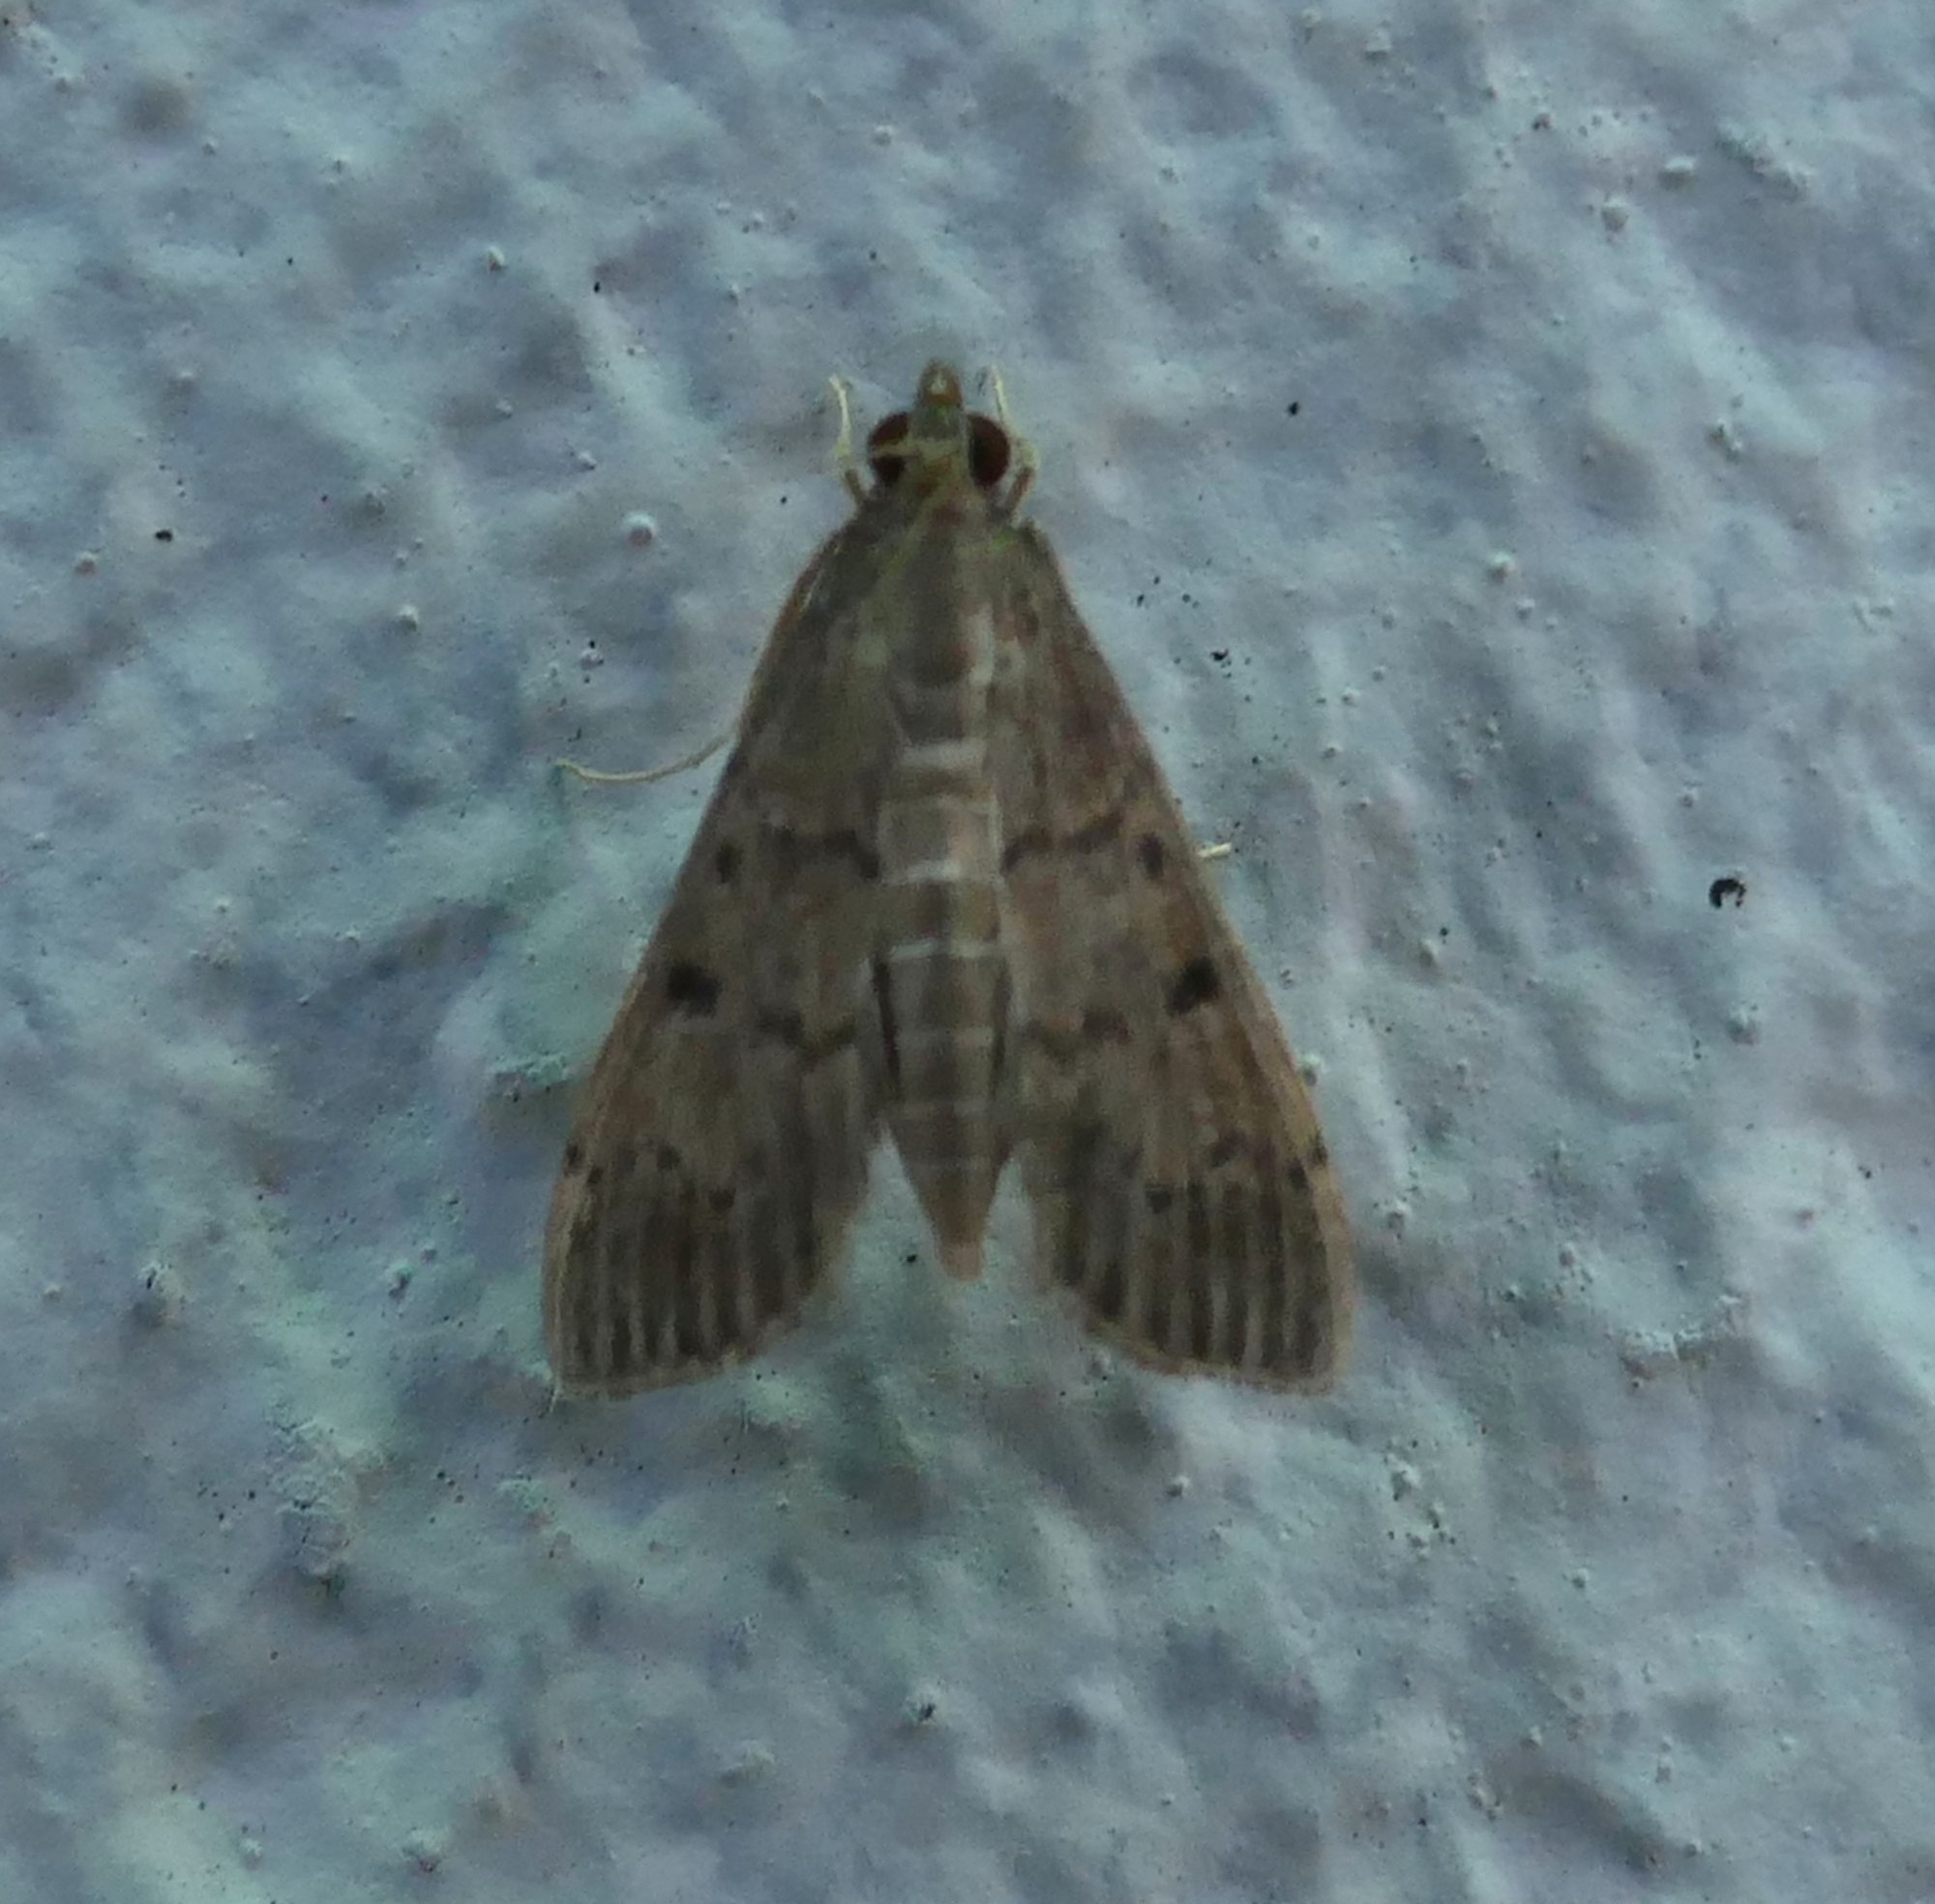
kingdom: Animalia
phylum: Arthropoda
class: Insecta
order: Lepidoptera
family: Crambidae
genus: Herpetogramma
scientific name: Herpetogramma phaeopteralis
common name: Dusky herpetogramma moth
